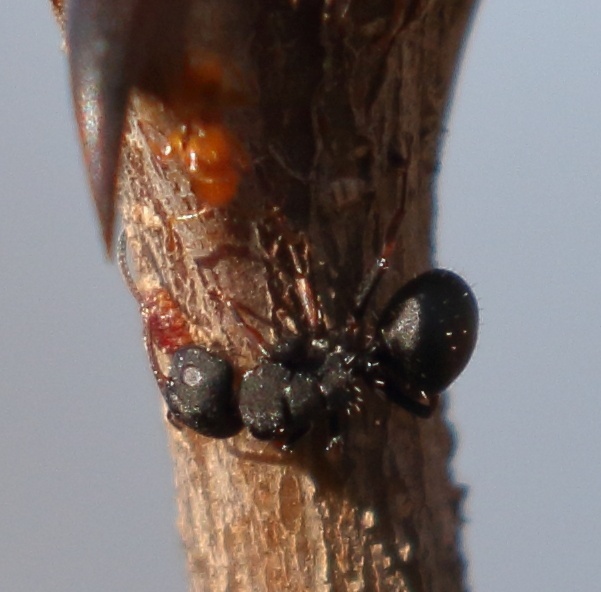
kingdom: Animalia
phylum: Arthropoda
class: Insecta
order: Hymenoptera
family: Formicidae
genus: Camponotus
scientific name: Camponotus braunsi
